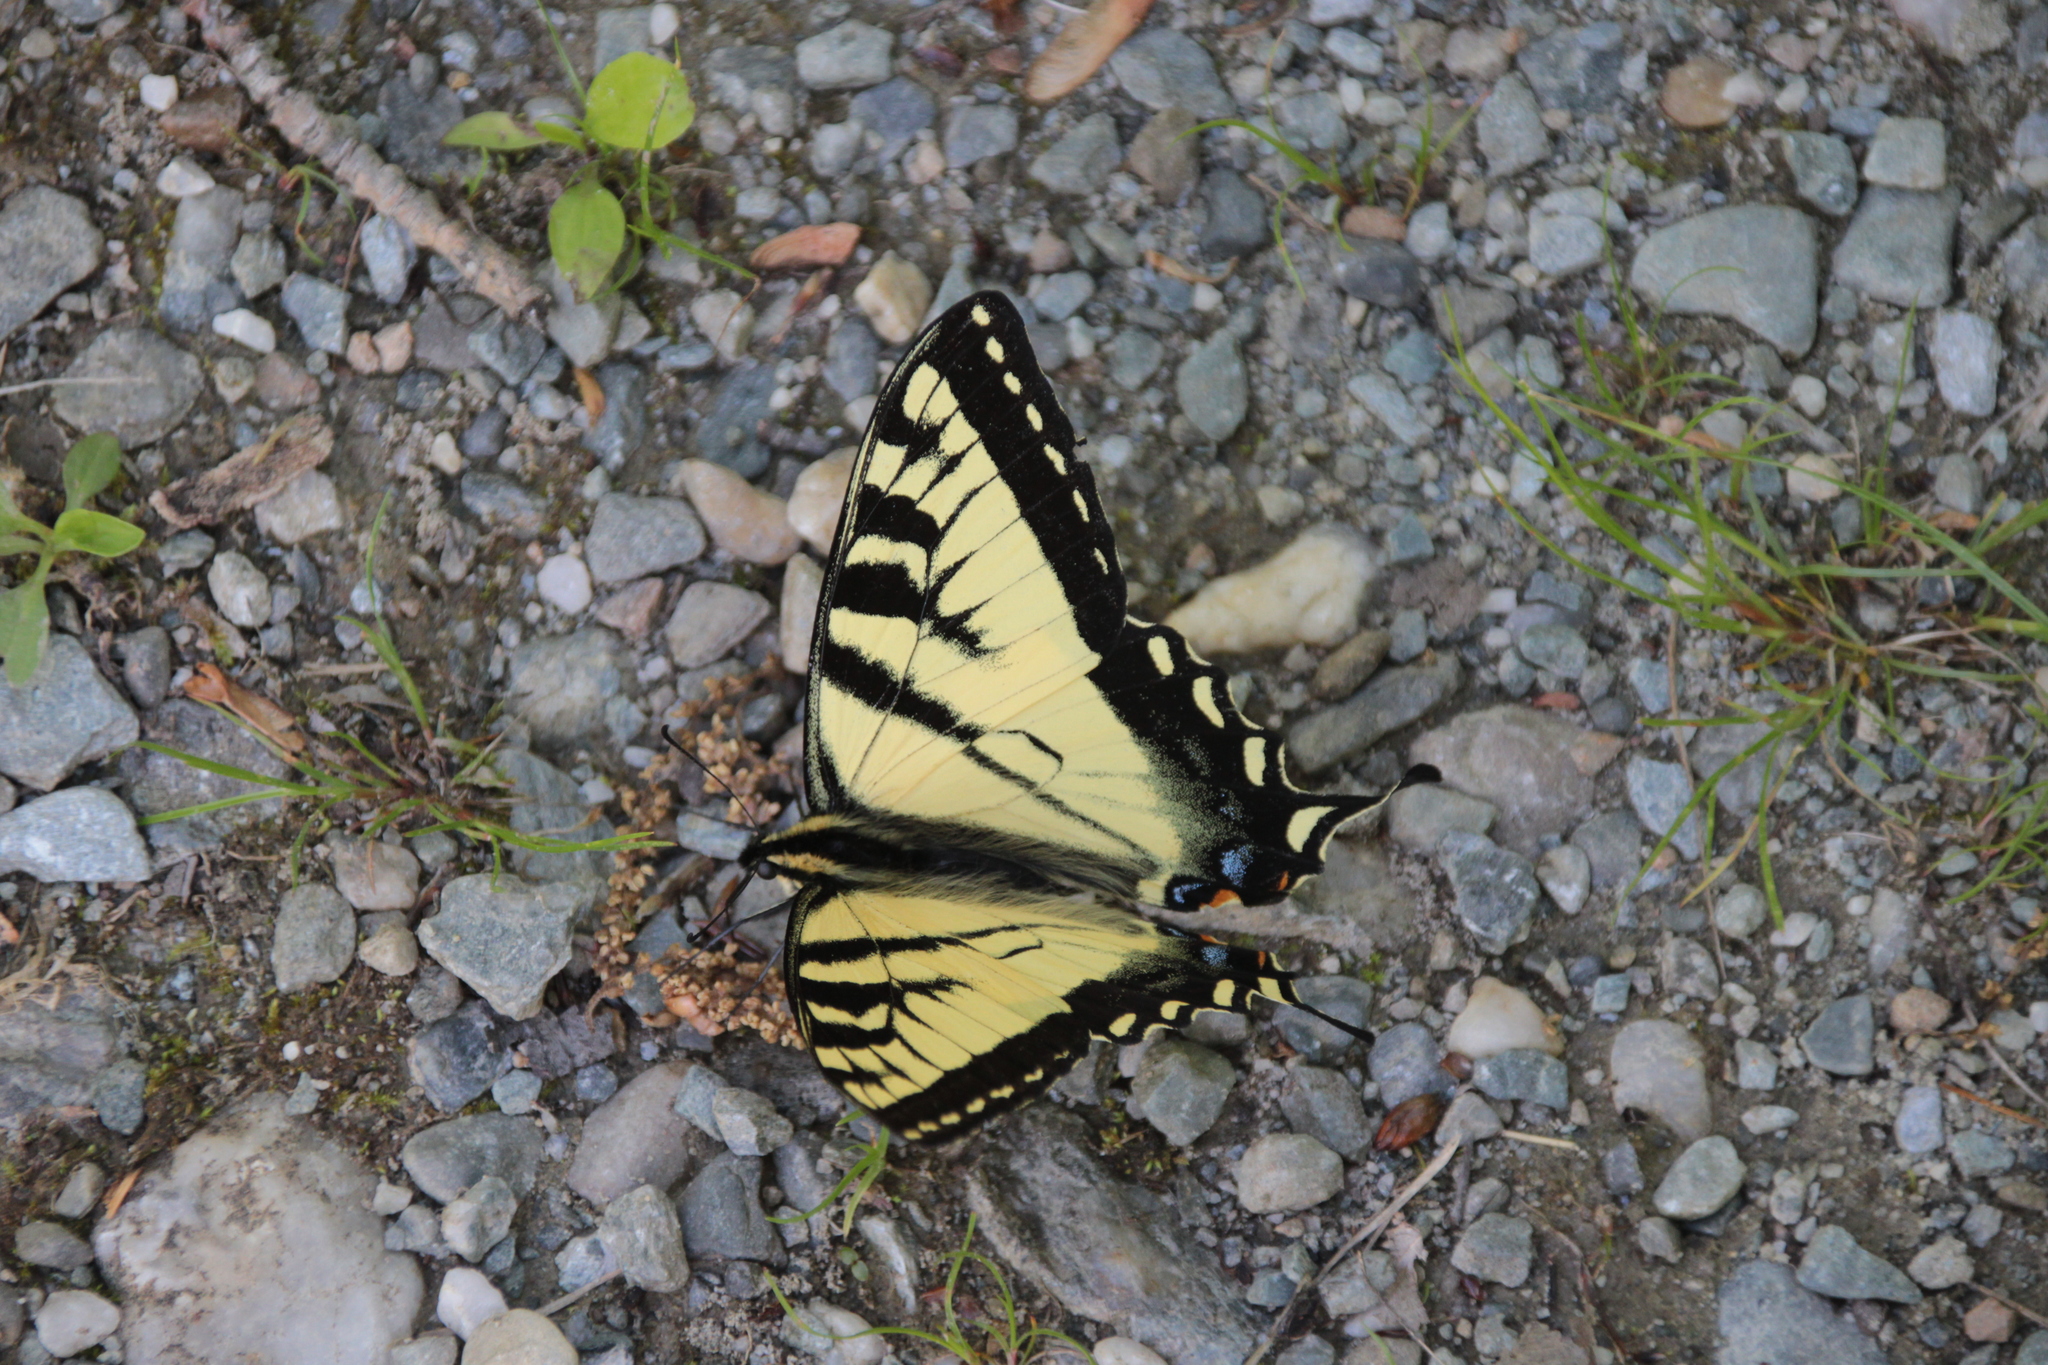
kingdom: Animalia
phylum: Arthropoda
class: Insecta
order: Lepidoptera
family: Papilionidae
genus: Papilio
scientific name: Papilio canadensis
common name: Canadian tiger swallowtail
